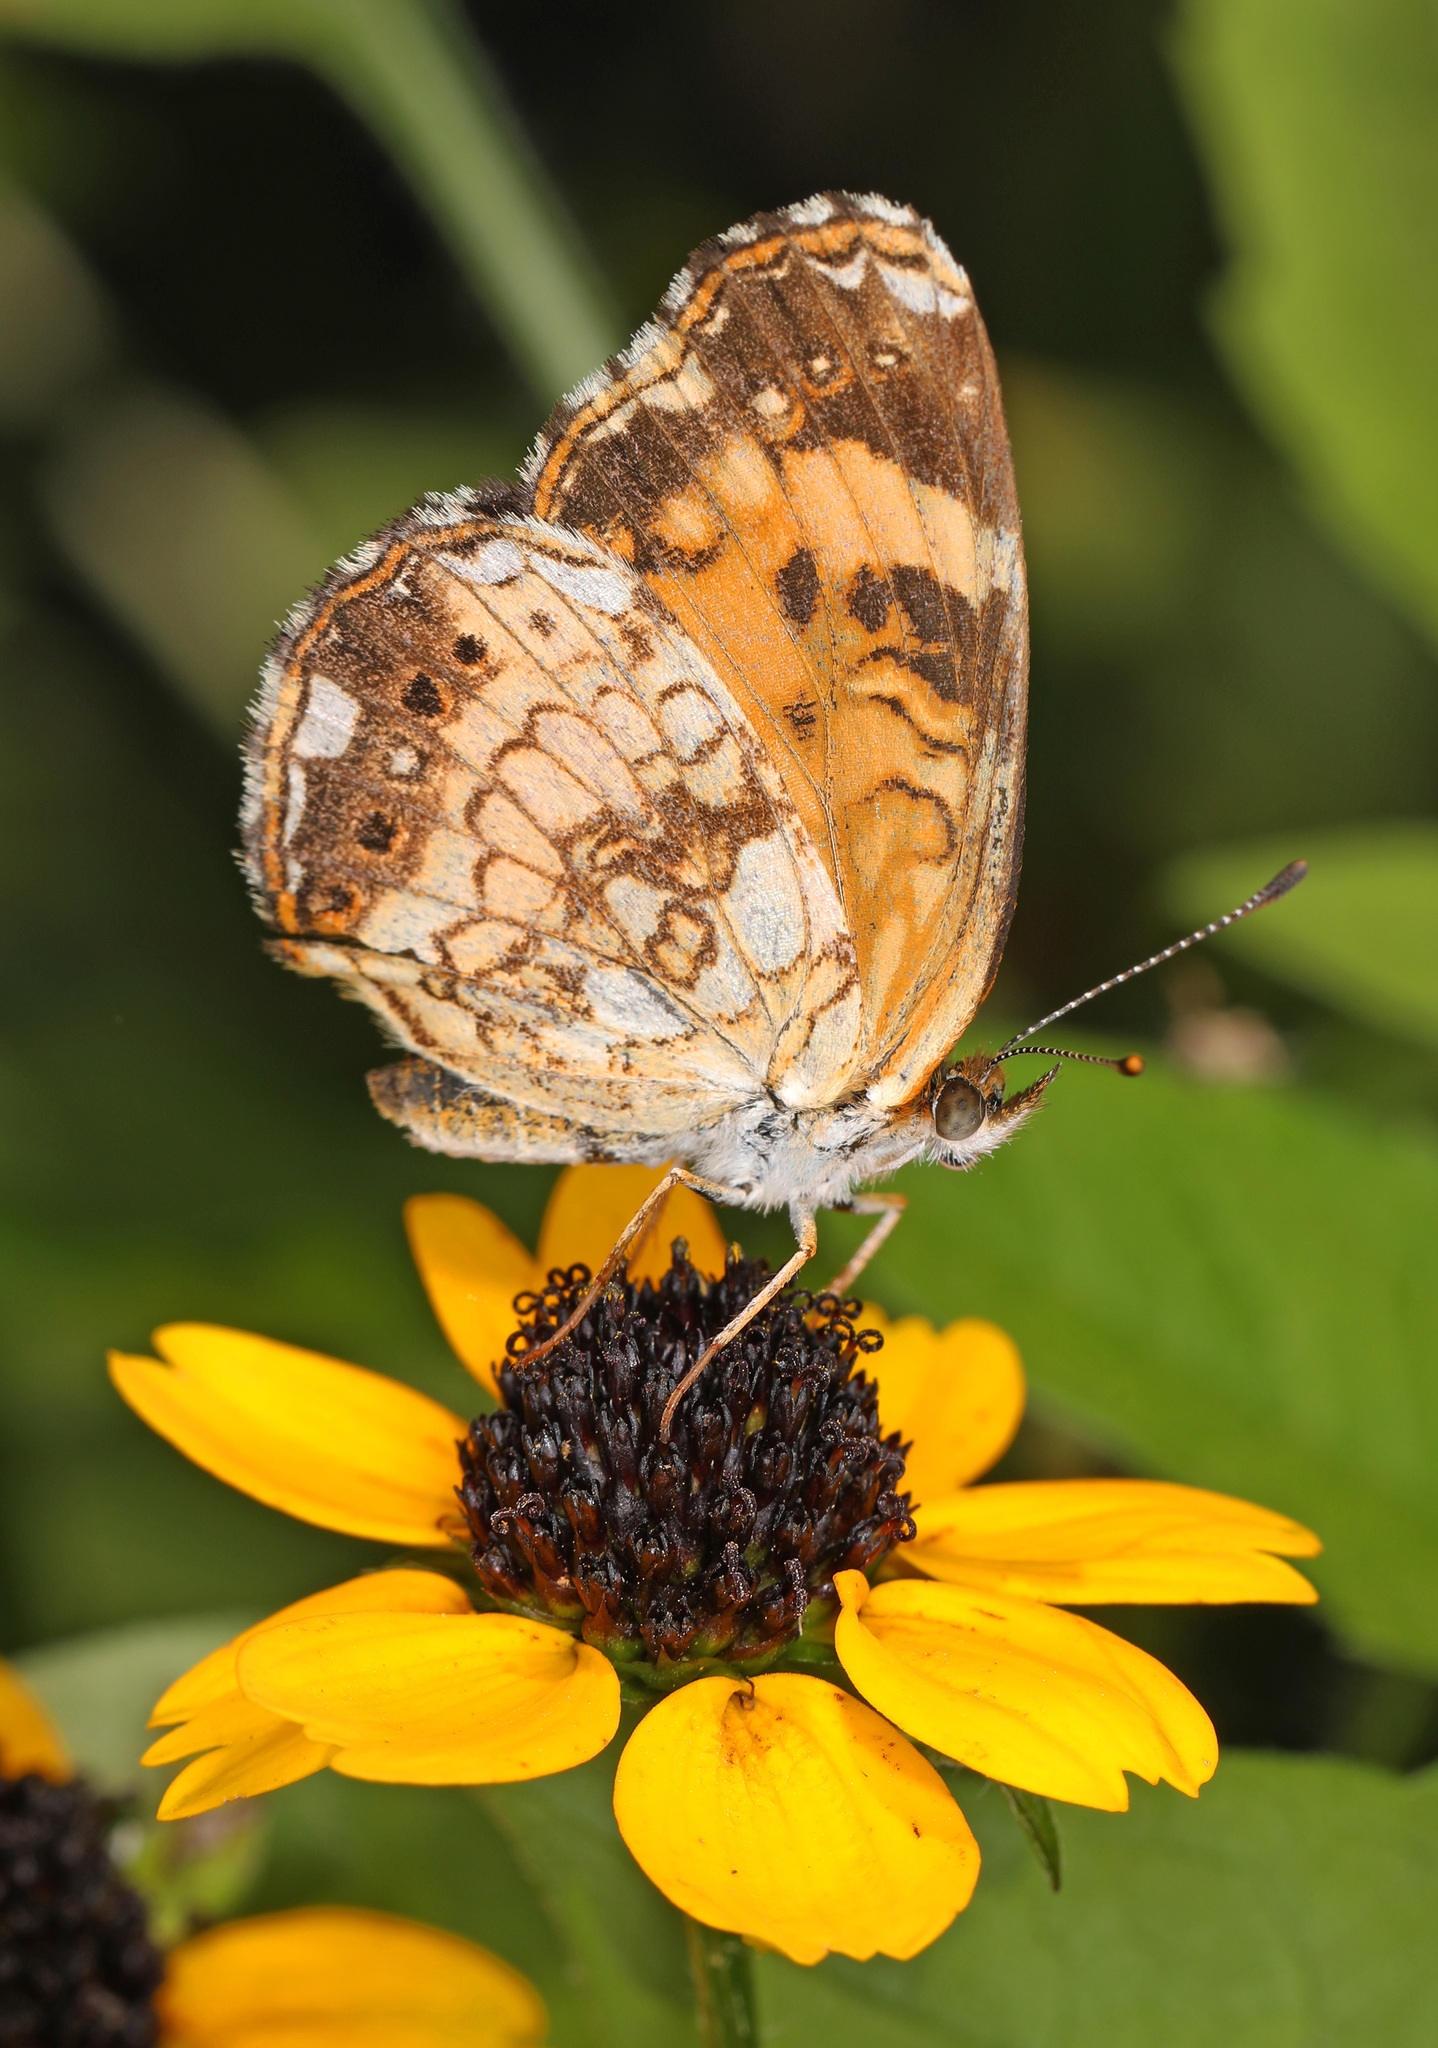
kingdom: Animalia
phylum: Arthropoda
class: Insecta
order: Lepidoptera
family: Nymphalidae
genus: Chlosyne
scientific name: Chlosyne nycteis
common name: Silvery checkerspot
